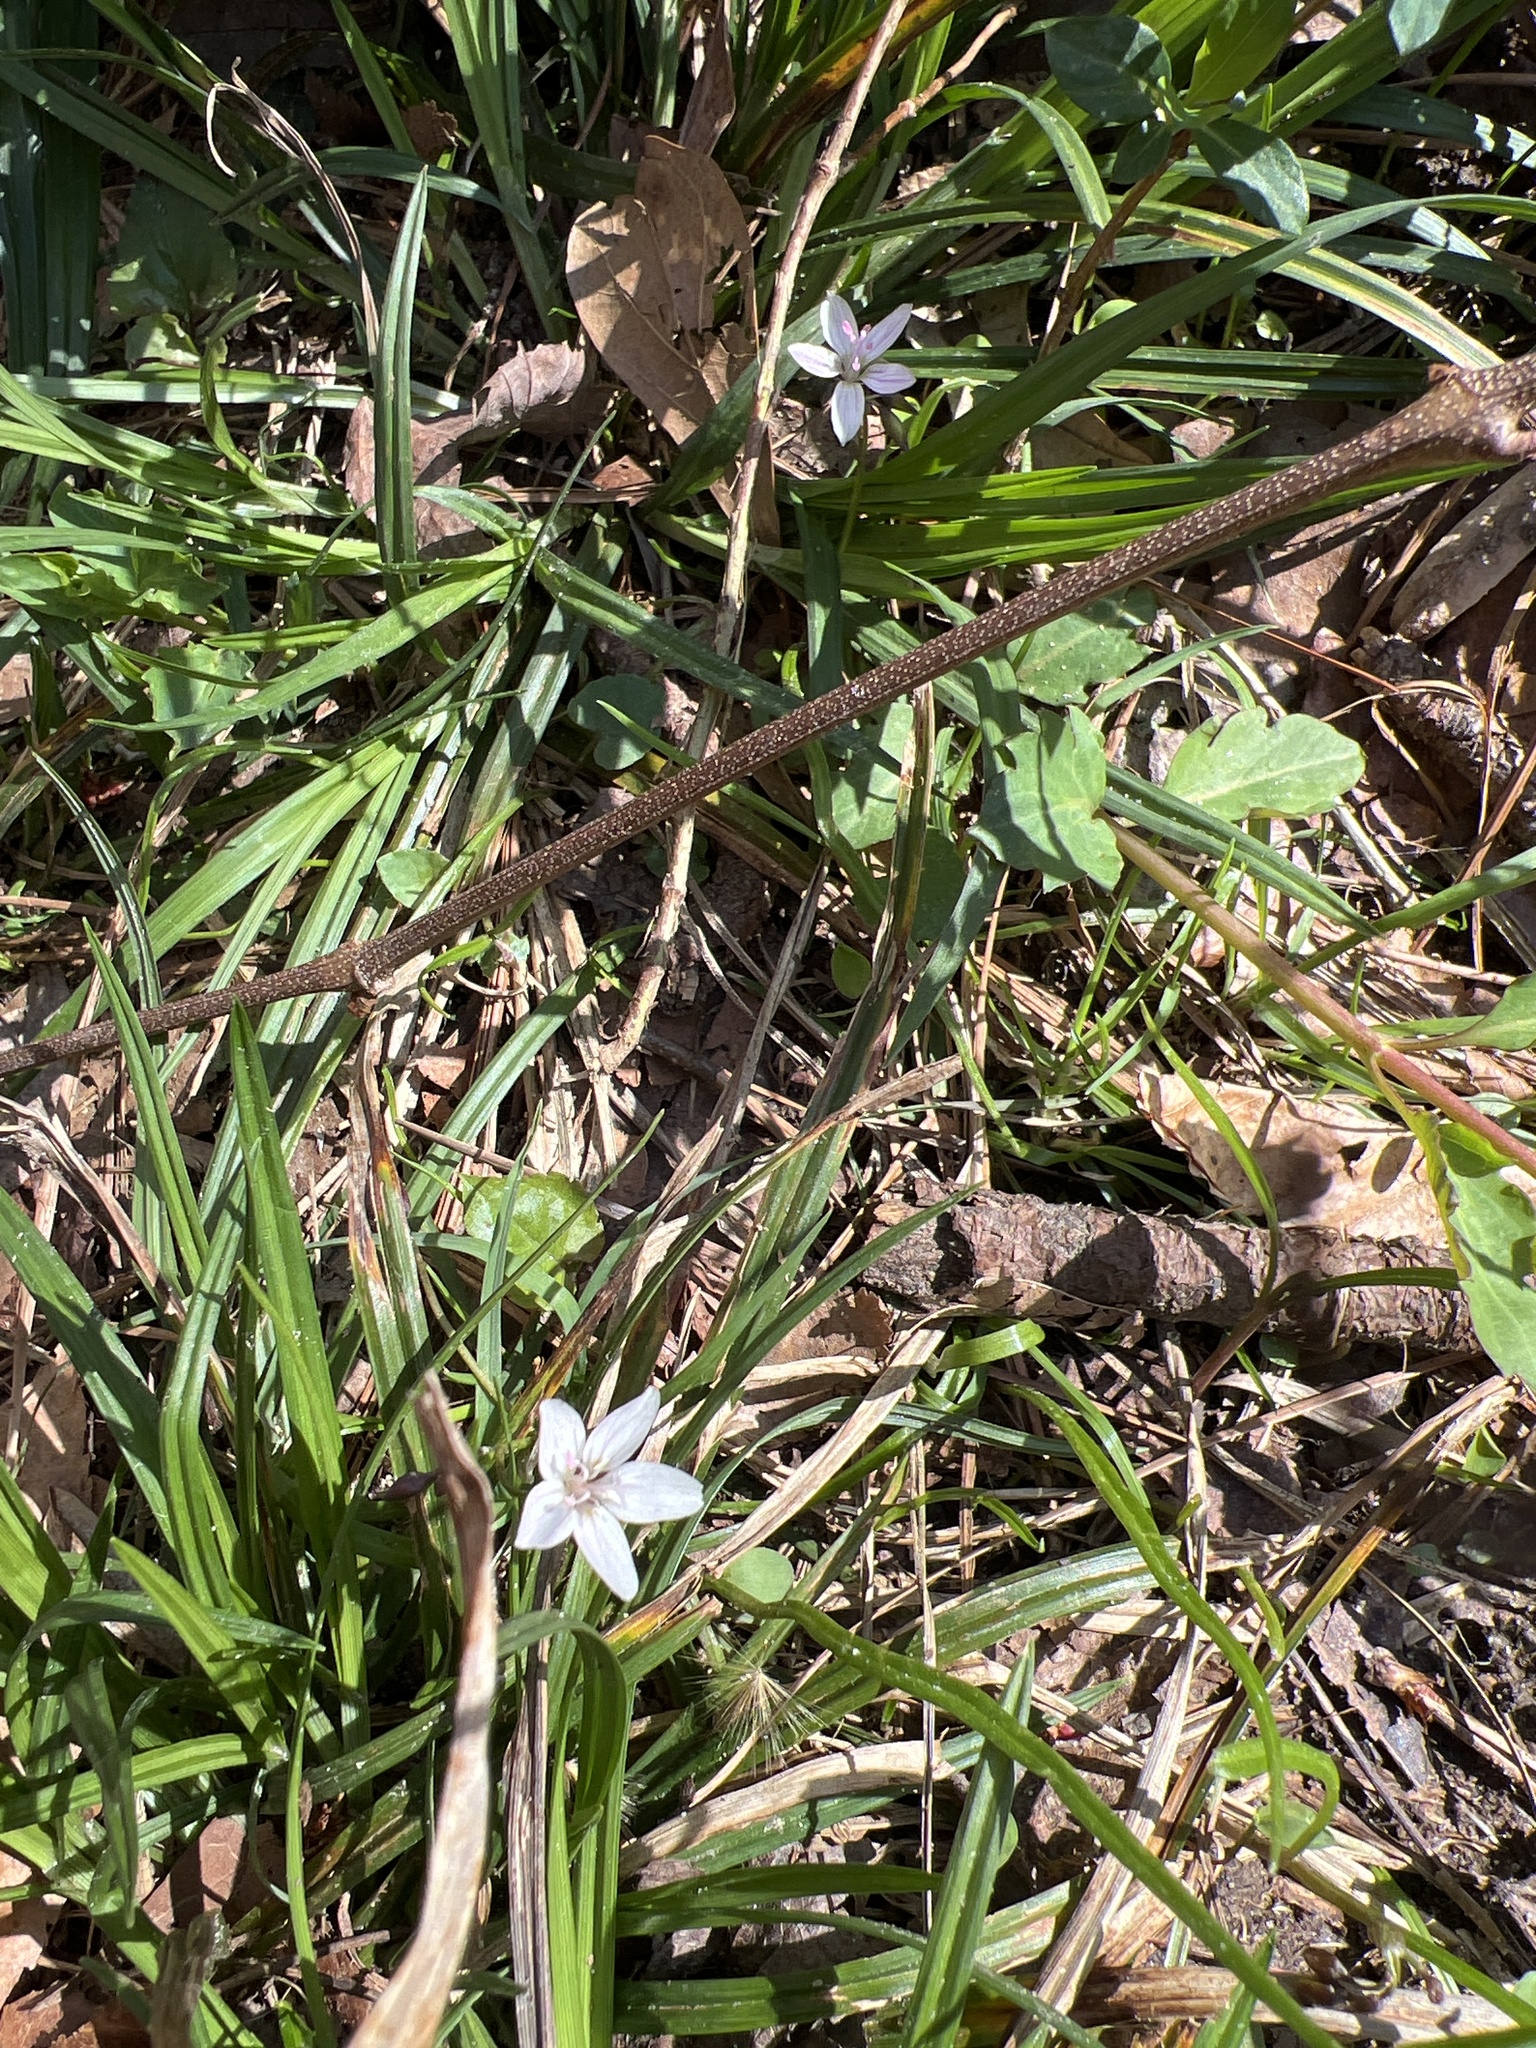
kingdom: Plantae
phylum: Tracheophyta
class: Magnoliopsida
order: Caryophyllales
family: Montiaceae
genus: Claytonia
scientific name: Claytonia virginica
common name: Virginia springbeauty
